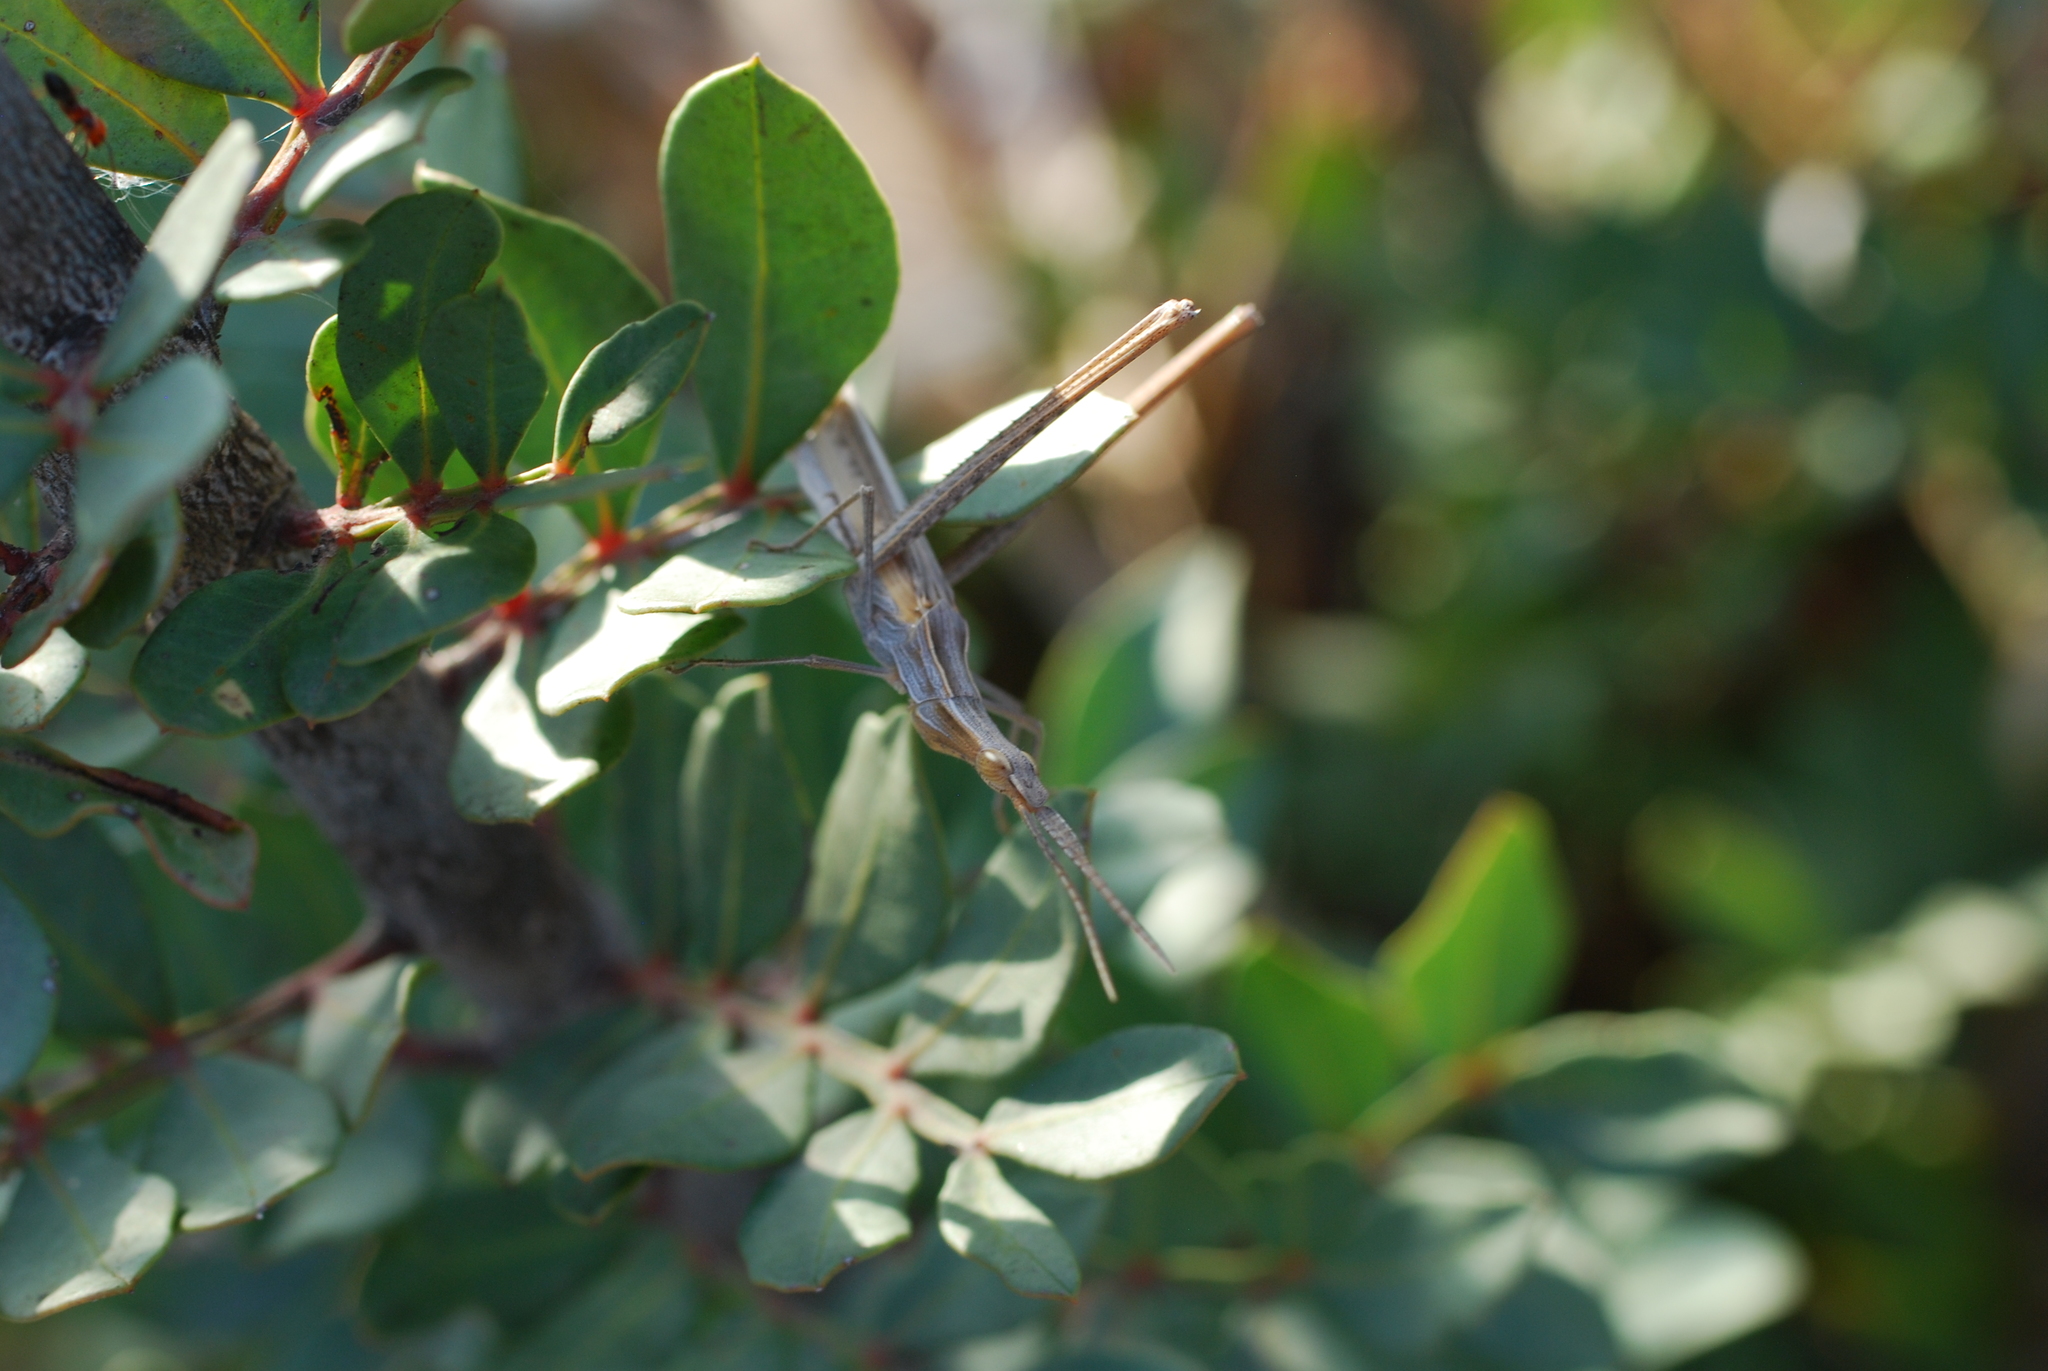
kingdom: Animalia
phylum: Arthropoda
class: Insecta
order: Orthoptera
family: Acrididae
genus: Acrida
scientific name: Acrida ungarica
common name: Common cone-headed grasshopper
